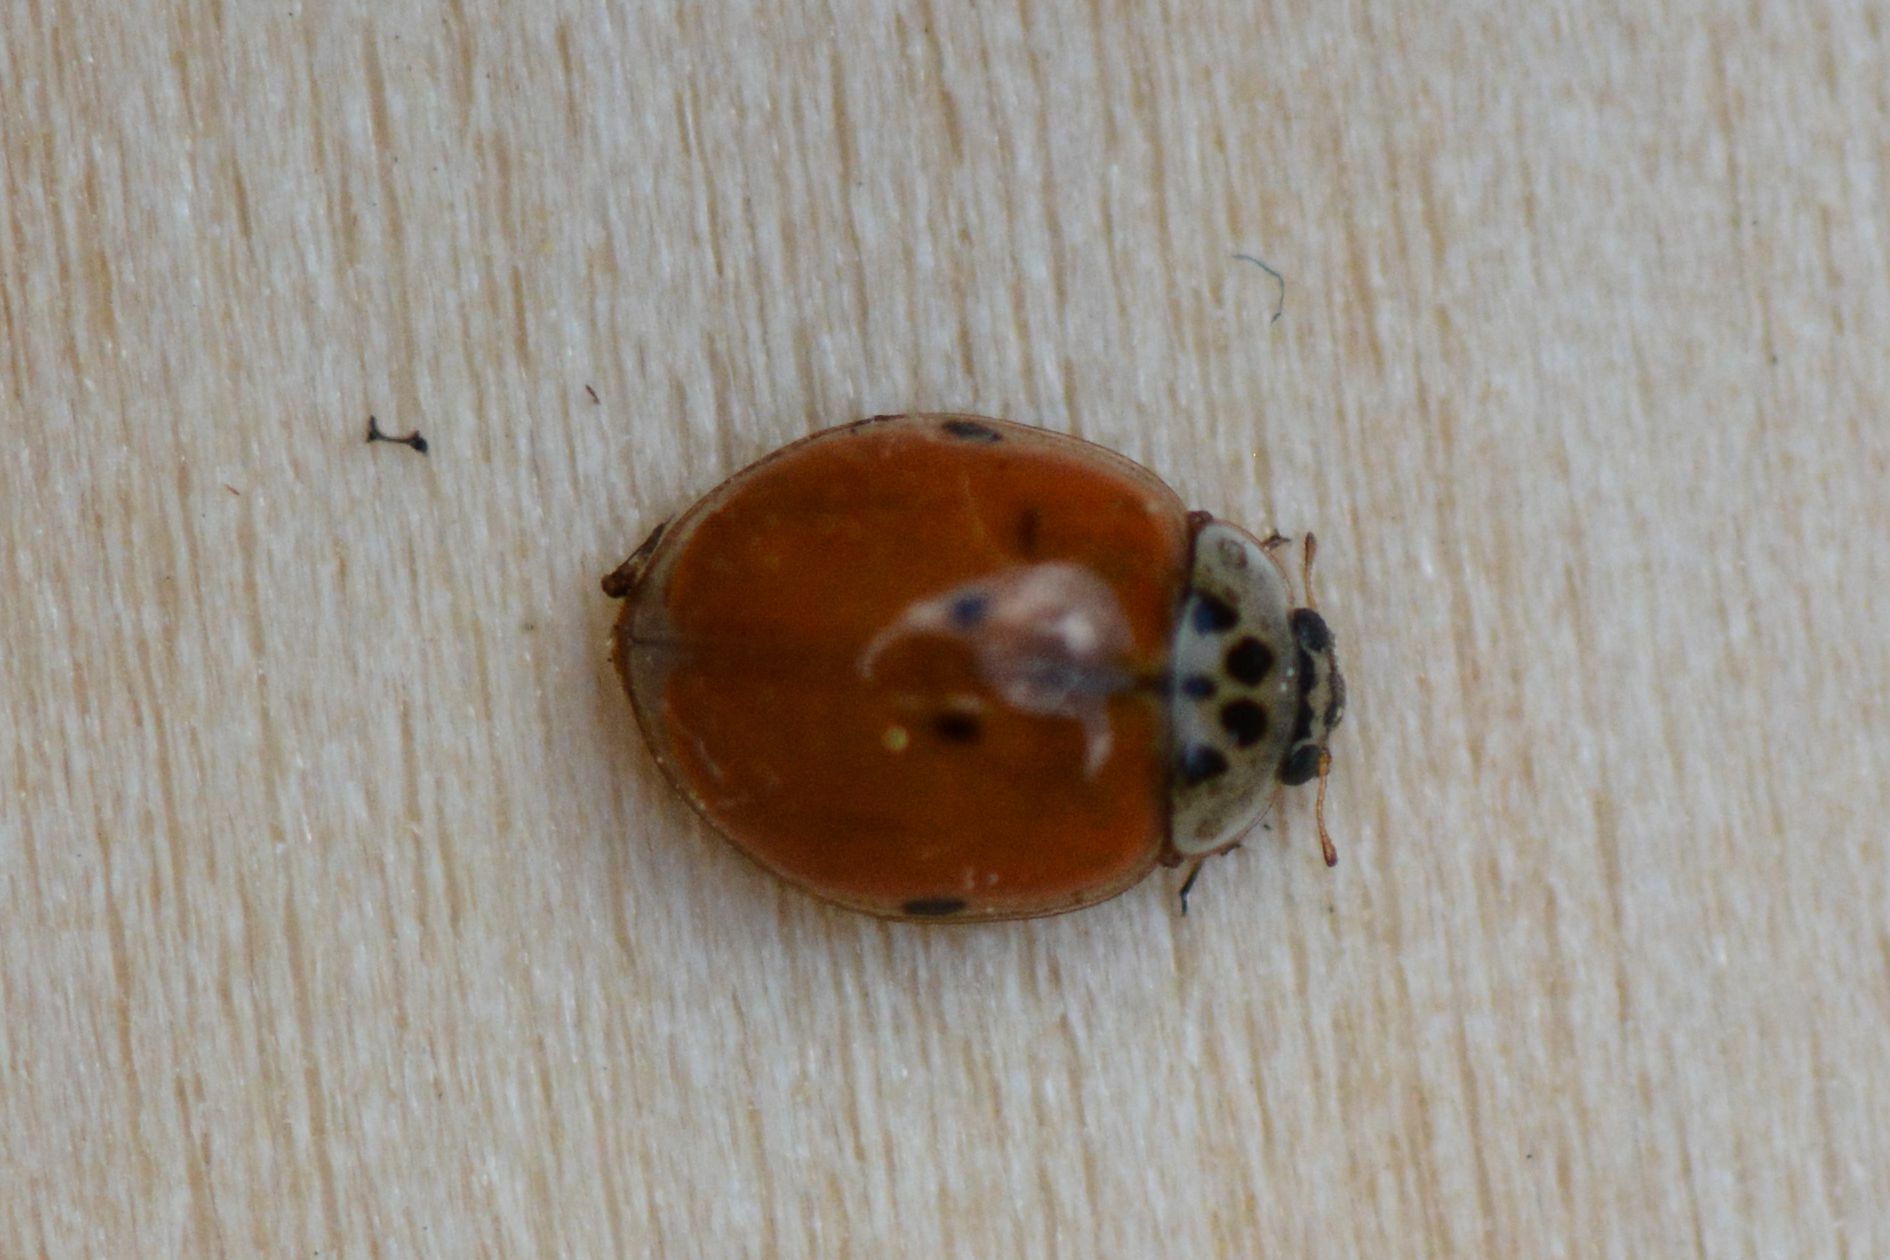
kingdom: Animalia
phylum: Arthropoda
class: Insecta
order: Coleoptera
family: Coccinellidae
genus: Adalia
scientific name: Adalia decempunctata
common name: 10-spot ladybird
